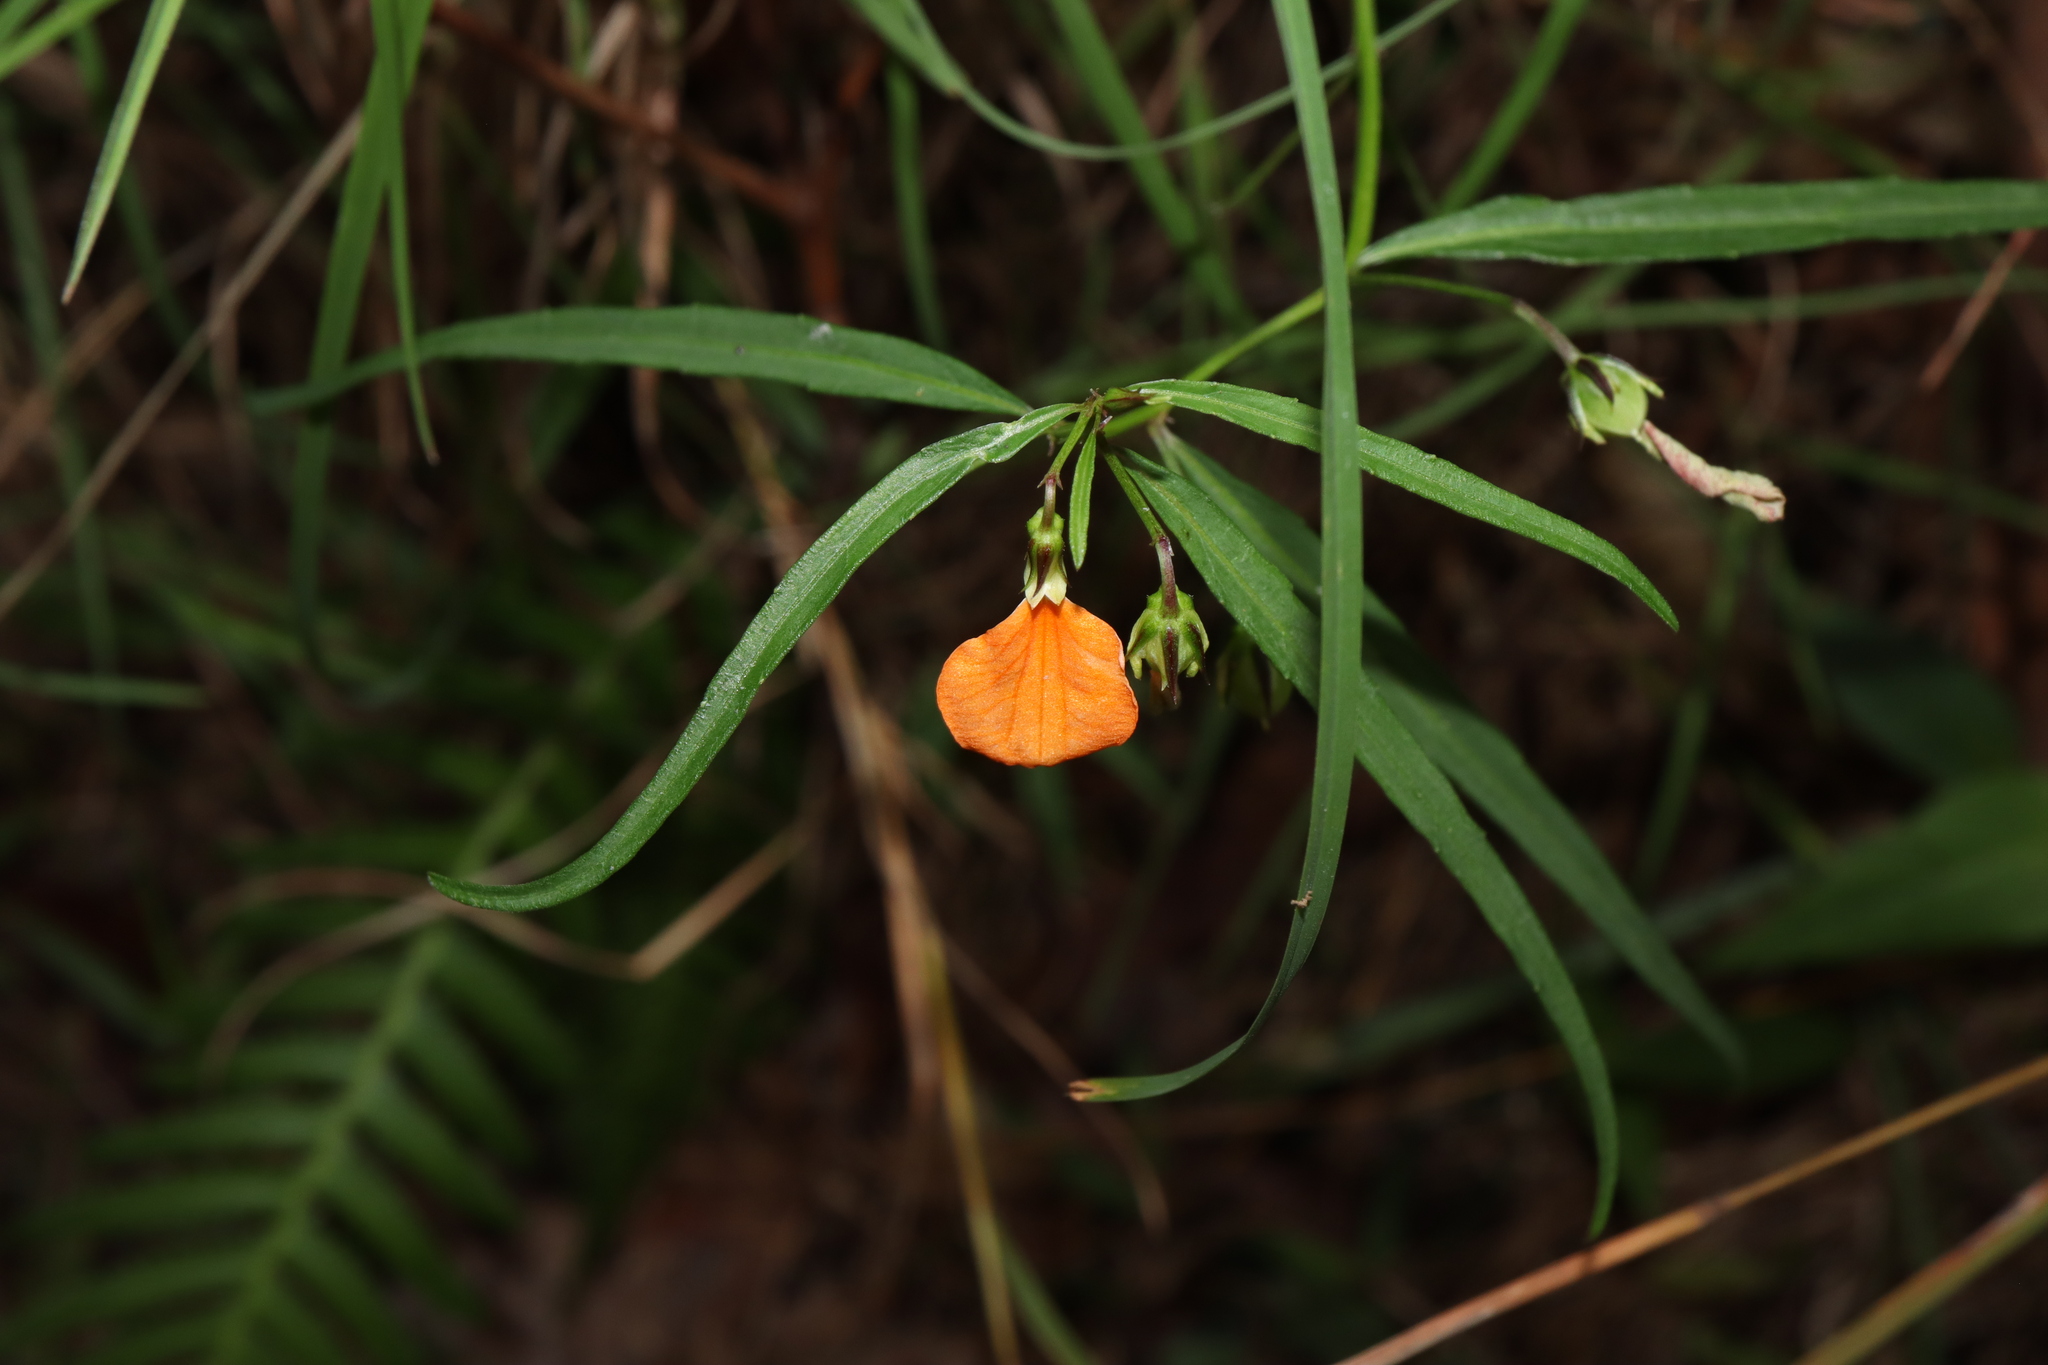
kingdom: Plantae
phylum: Tracheophyta
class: Magnoliopsida
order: Malpighiales
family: Violaceae
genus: Pigea
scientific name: Pigea stellarioides
